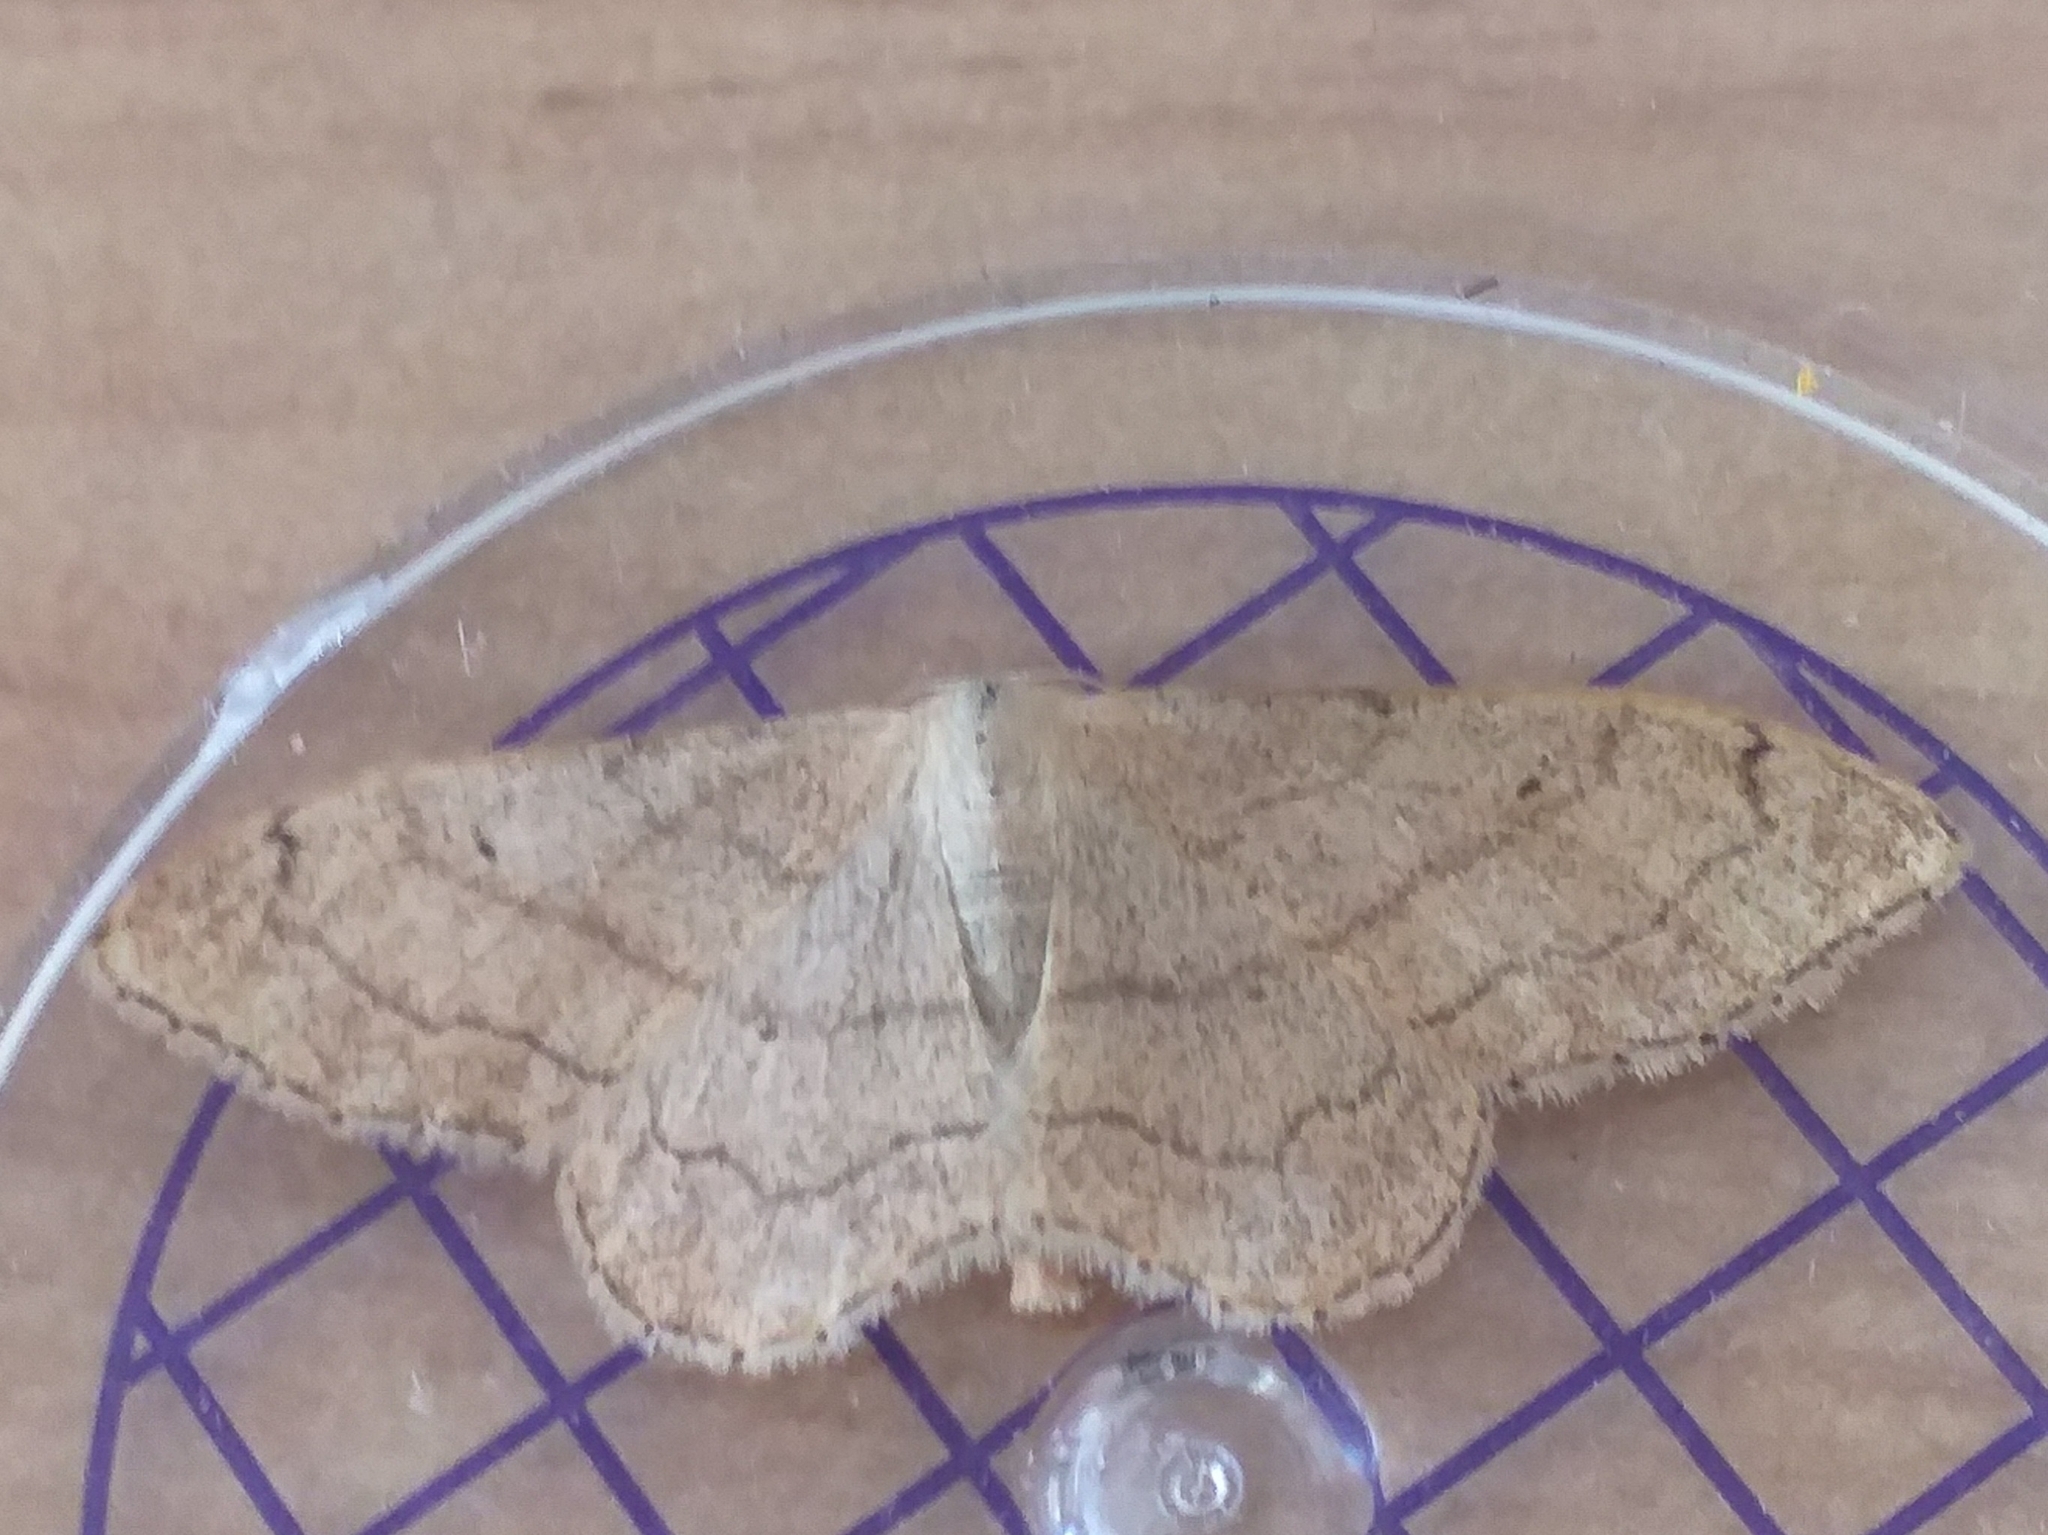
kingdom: Animalia
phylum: Arthropoda
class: Insecta
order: Lepidoptera
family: Geometridae
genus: Idaea
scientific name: Idaea aversata
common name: Riband wave
